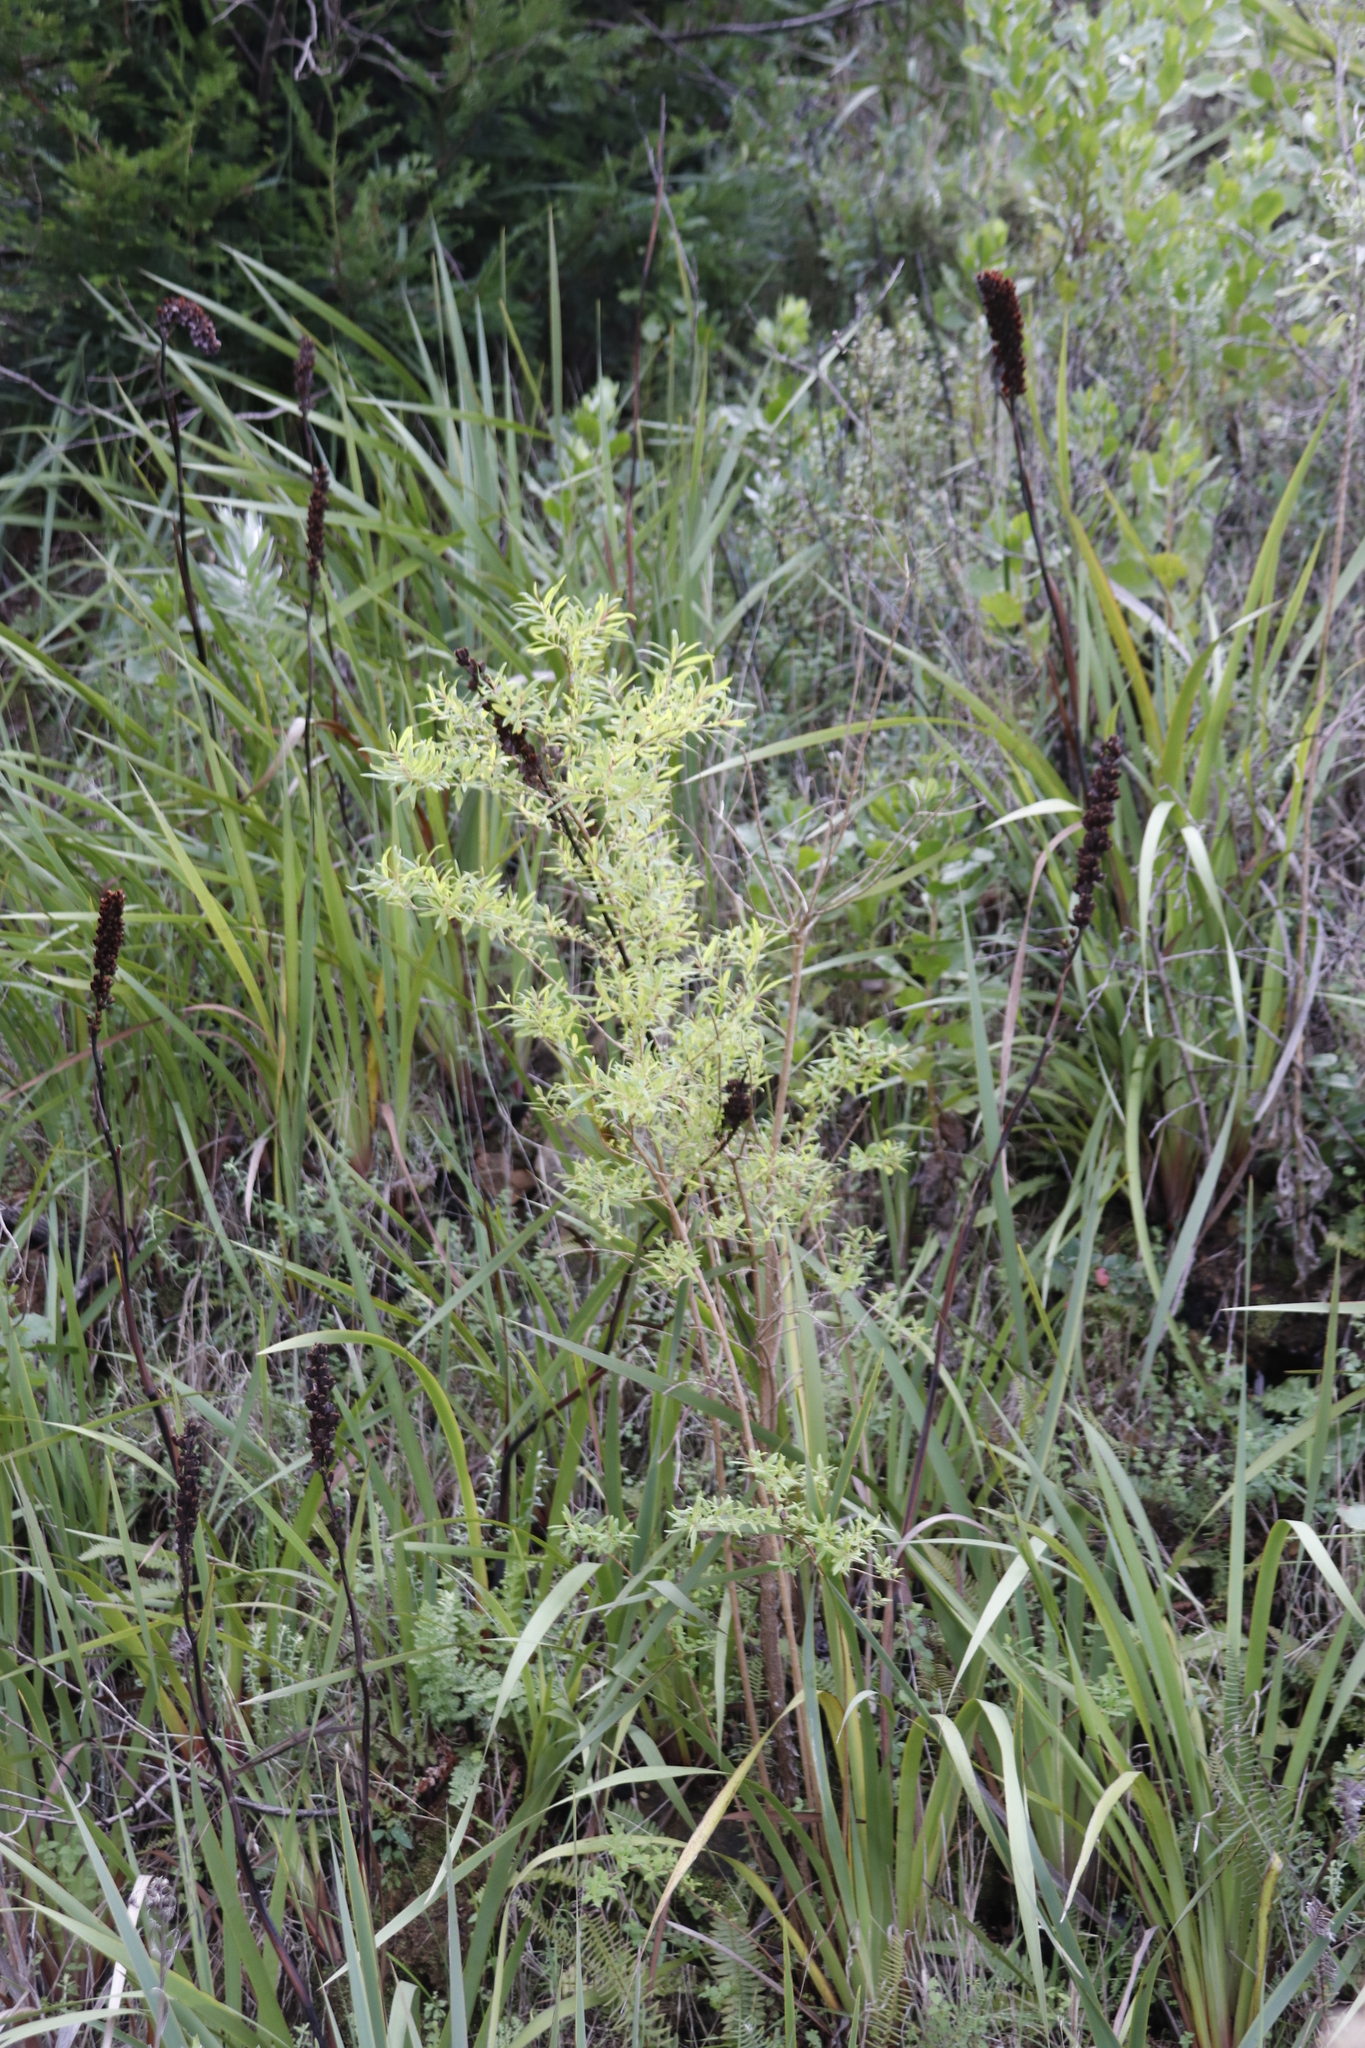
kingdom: Plantae
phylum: Tracheophyta
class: Magnoliopsida
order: Malpighiales
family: Hypericaceae
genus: Hypericum
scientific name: Hypericum canariense
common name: Canary island st. johnswort
